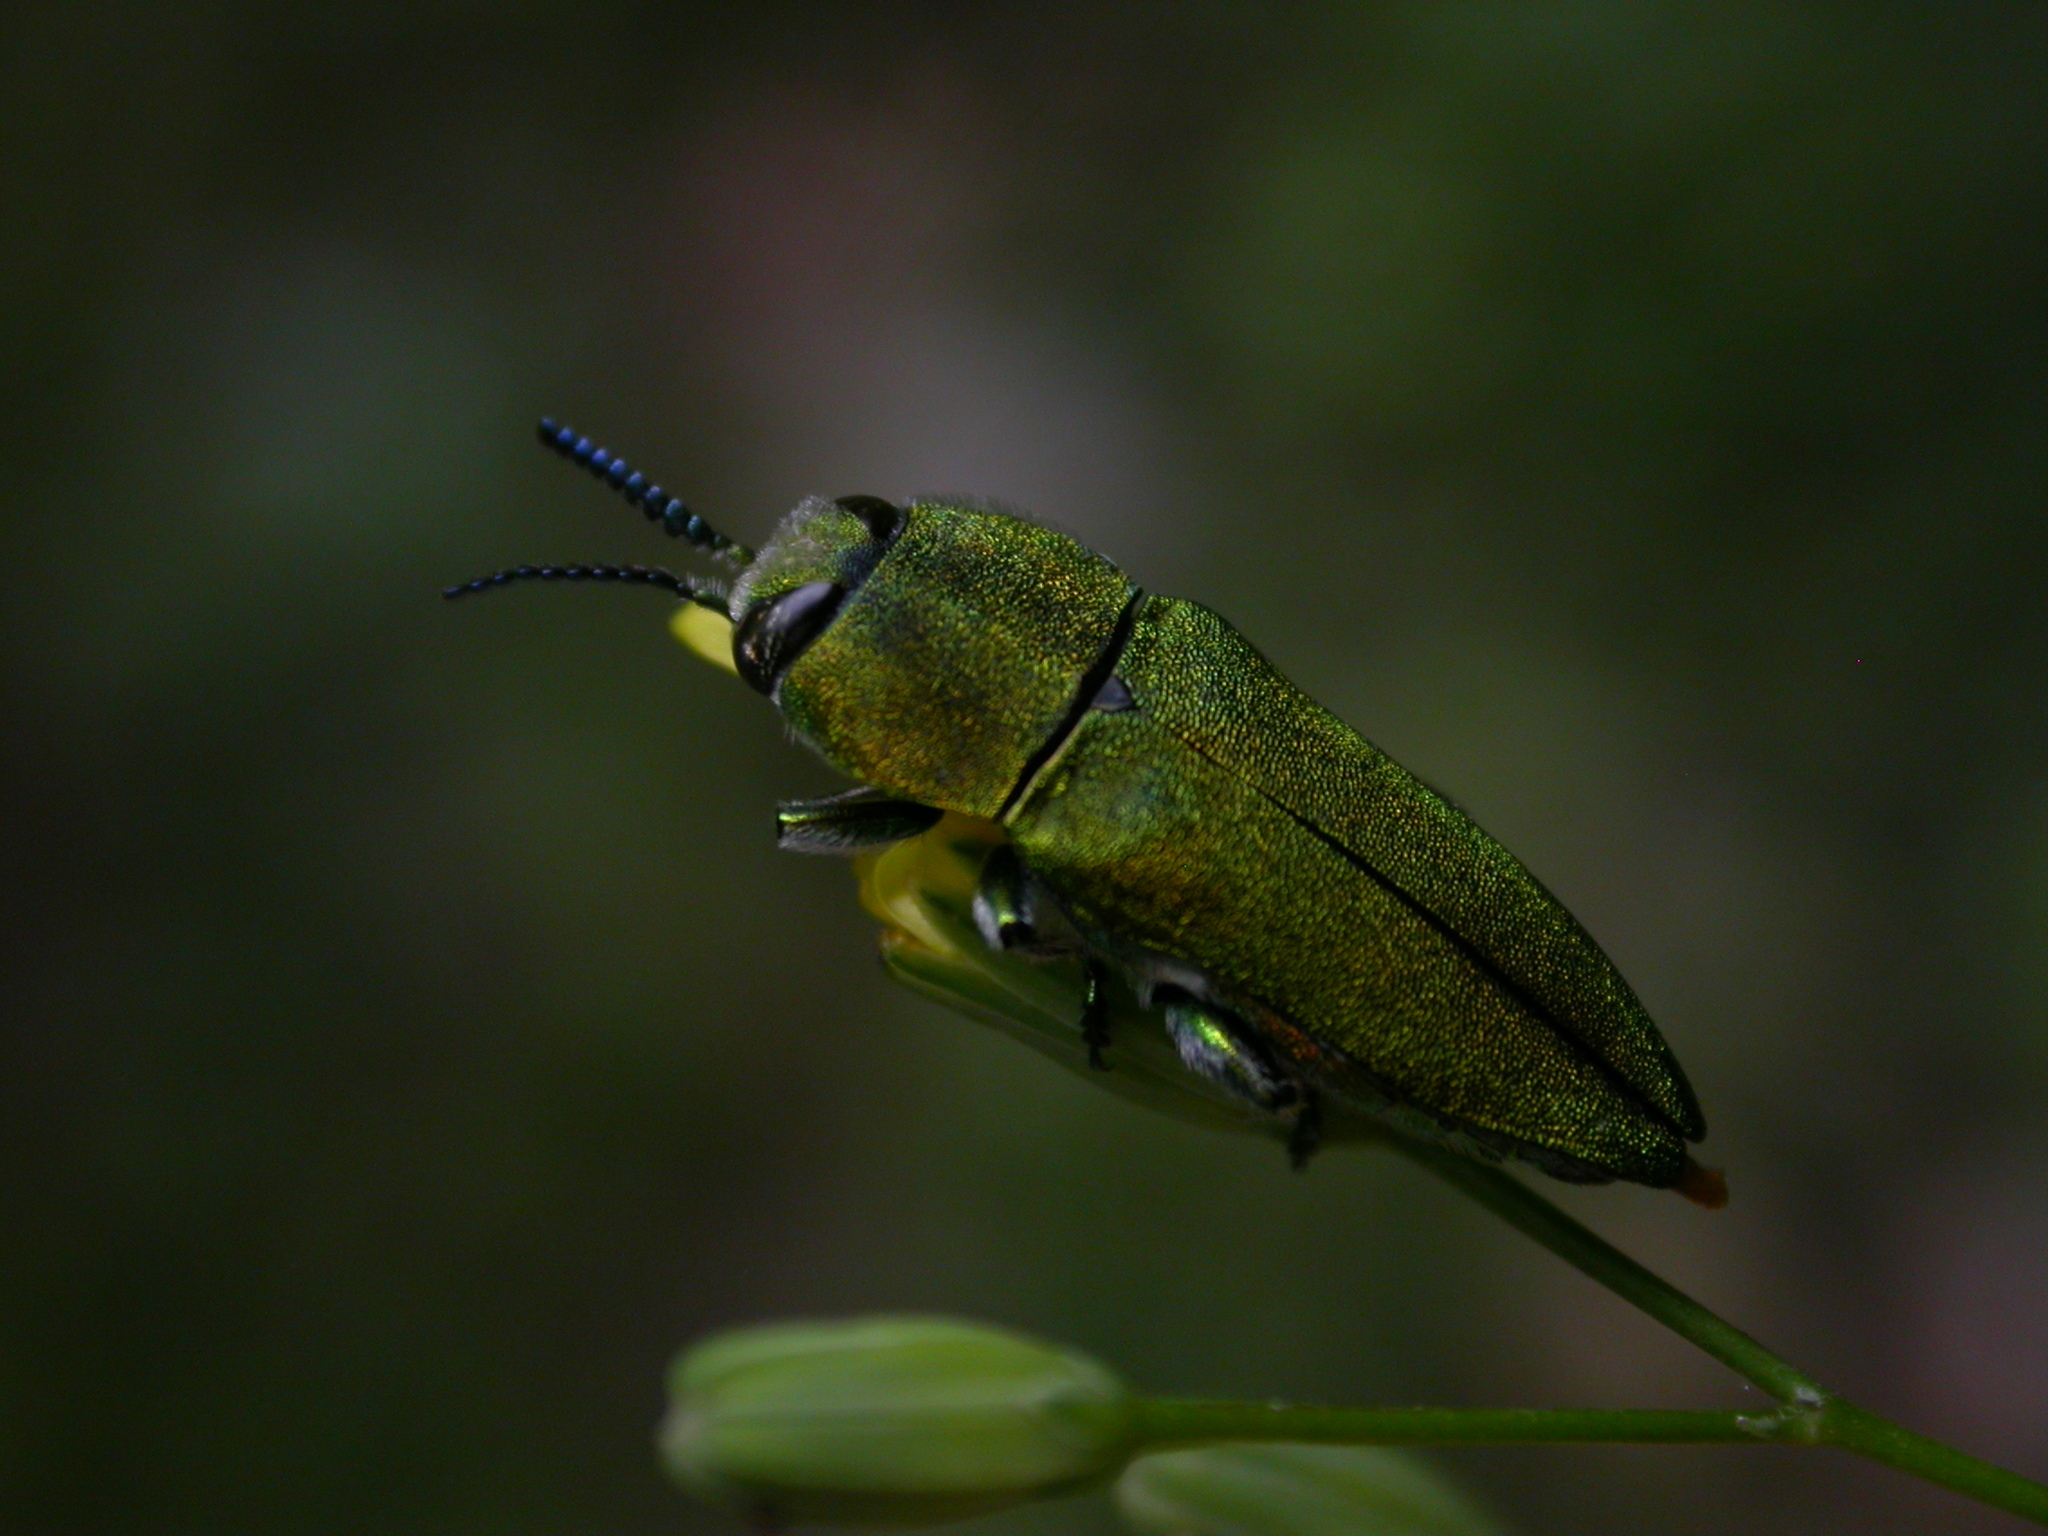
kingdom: Animalia
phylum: Arthropoda
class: Insecta
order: Coleoptera
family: Buprestidae
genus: Anthaxia
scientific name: Anthaxia hungarica
